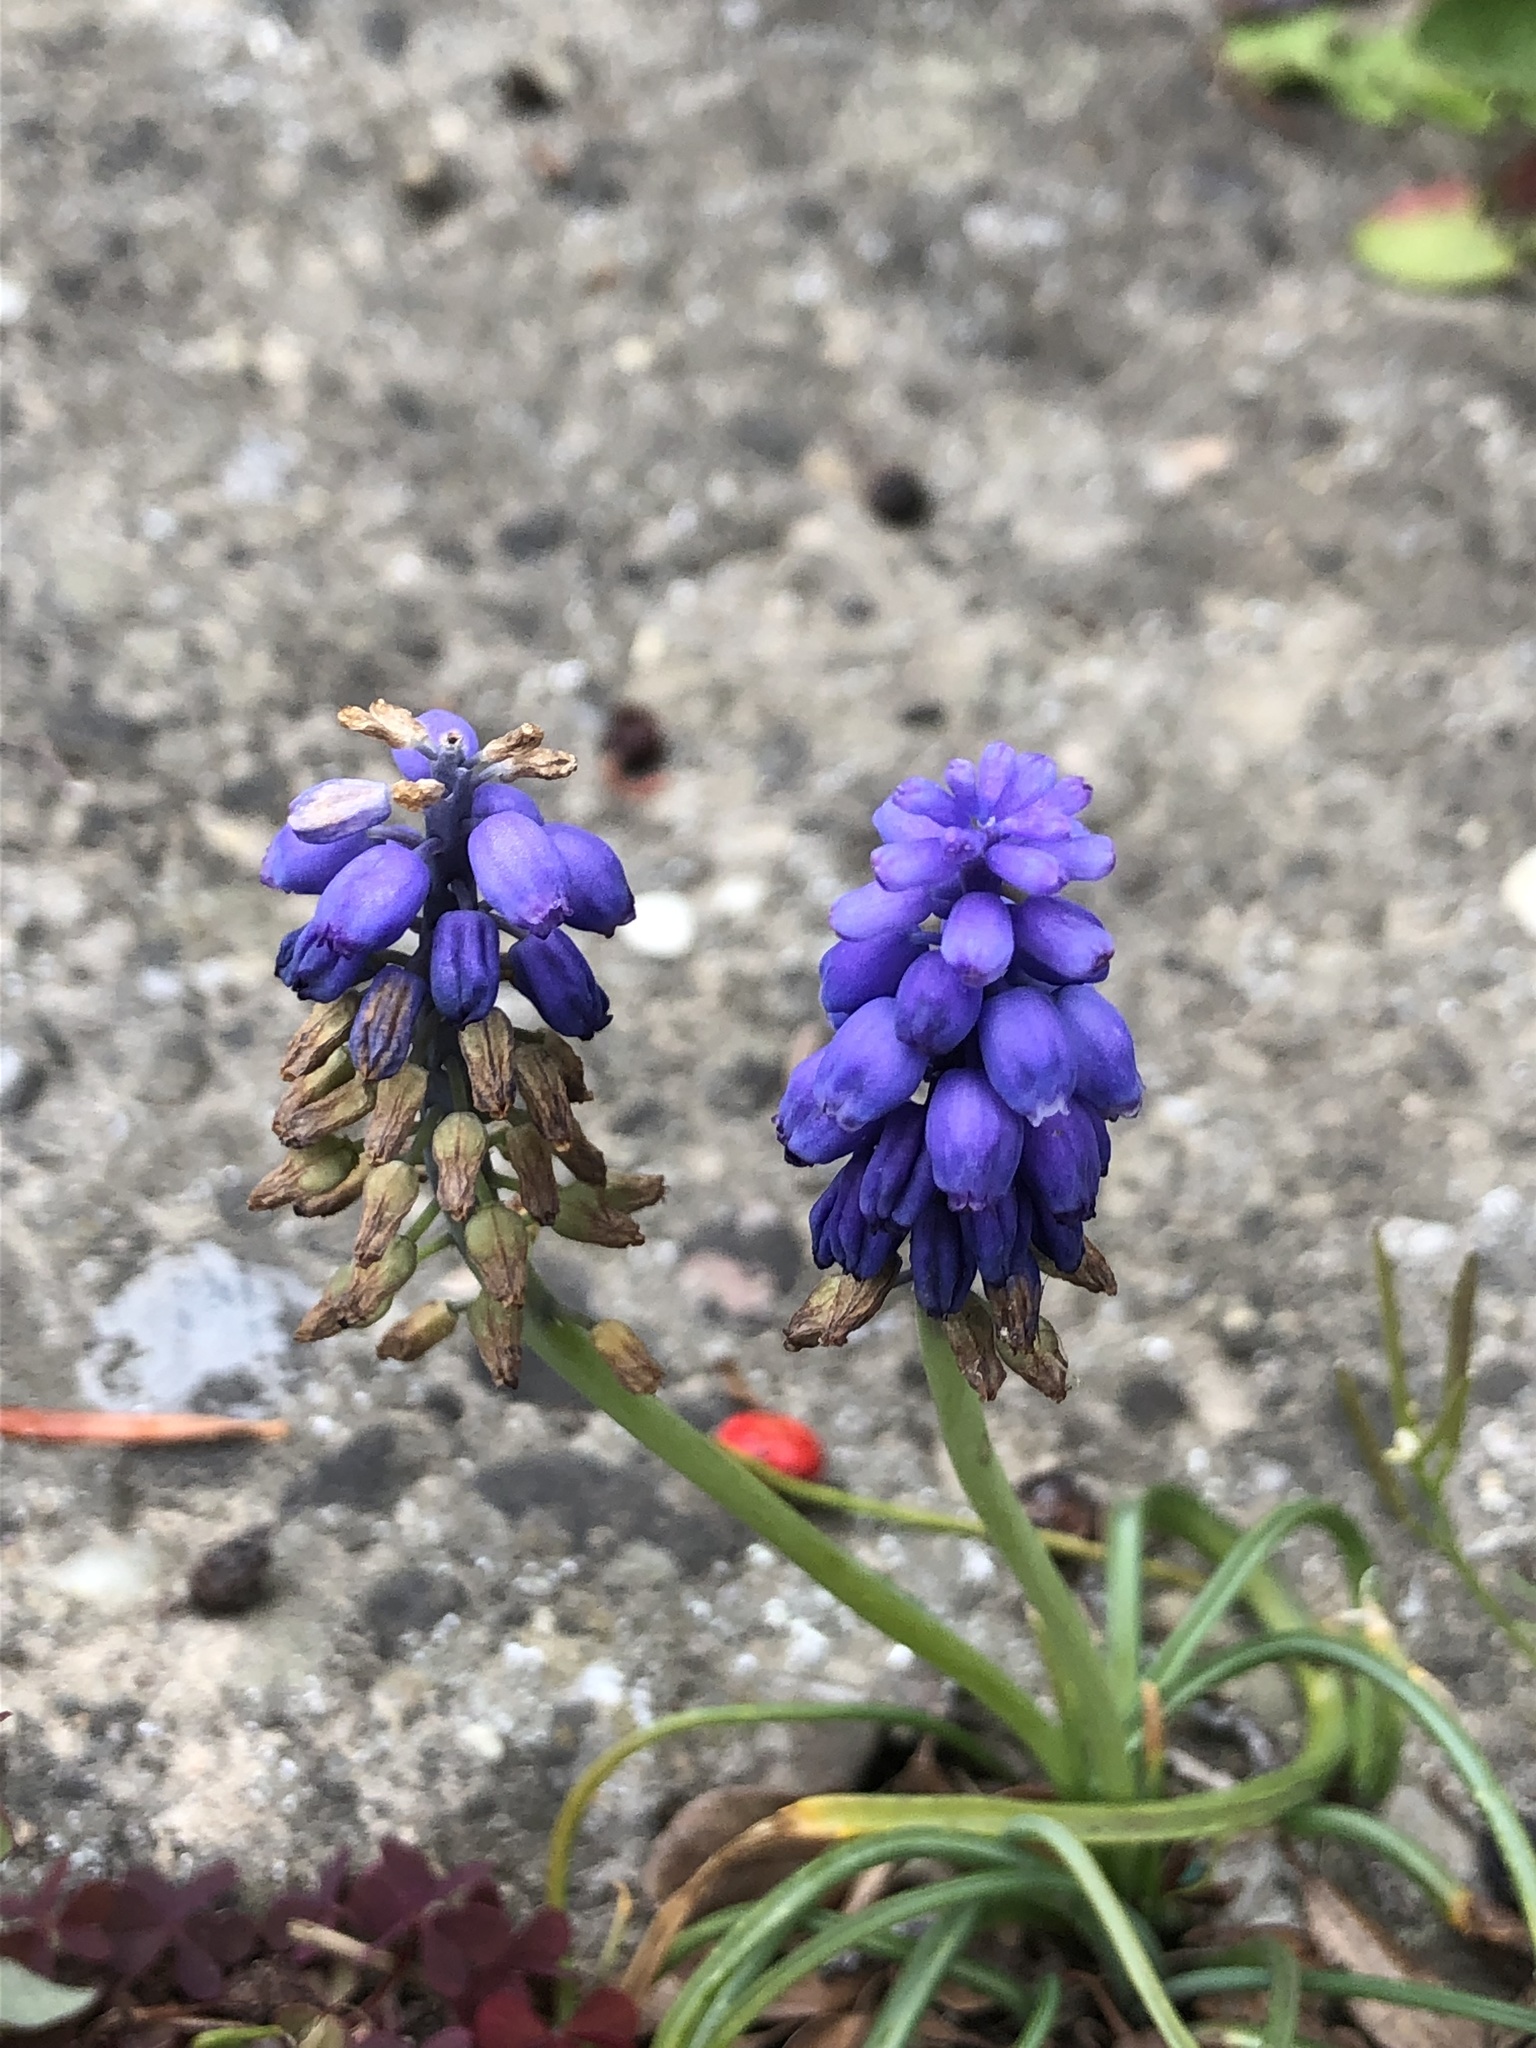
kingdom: Plantae
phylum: Tracheophyta
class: Liliopsida
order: Asparagales
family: Asparagaceae
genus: Muscari
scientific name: Muscari armeniacum
